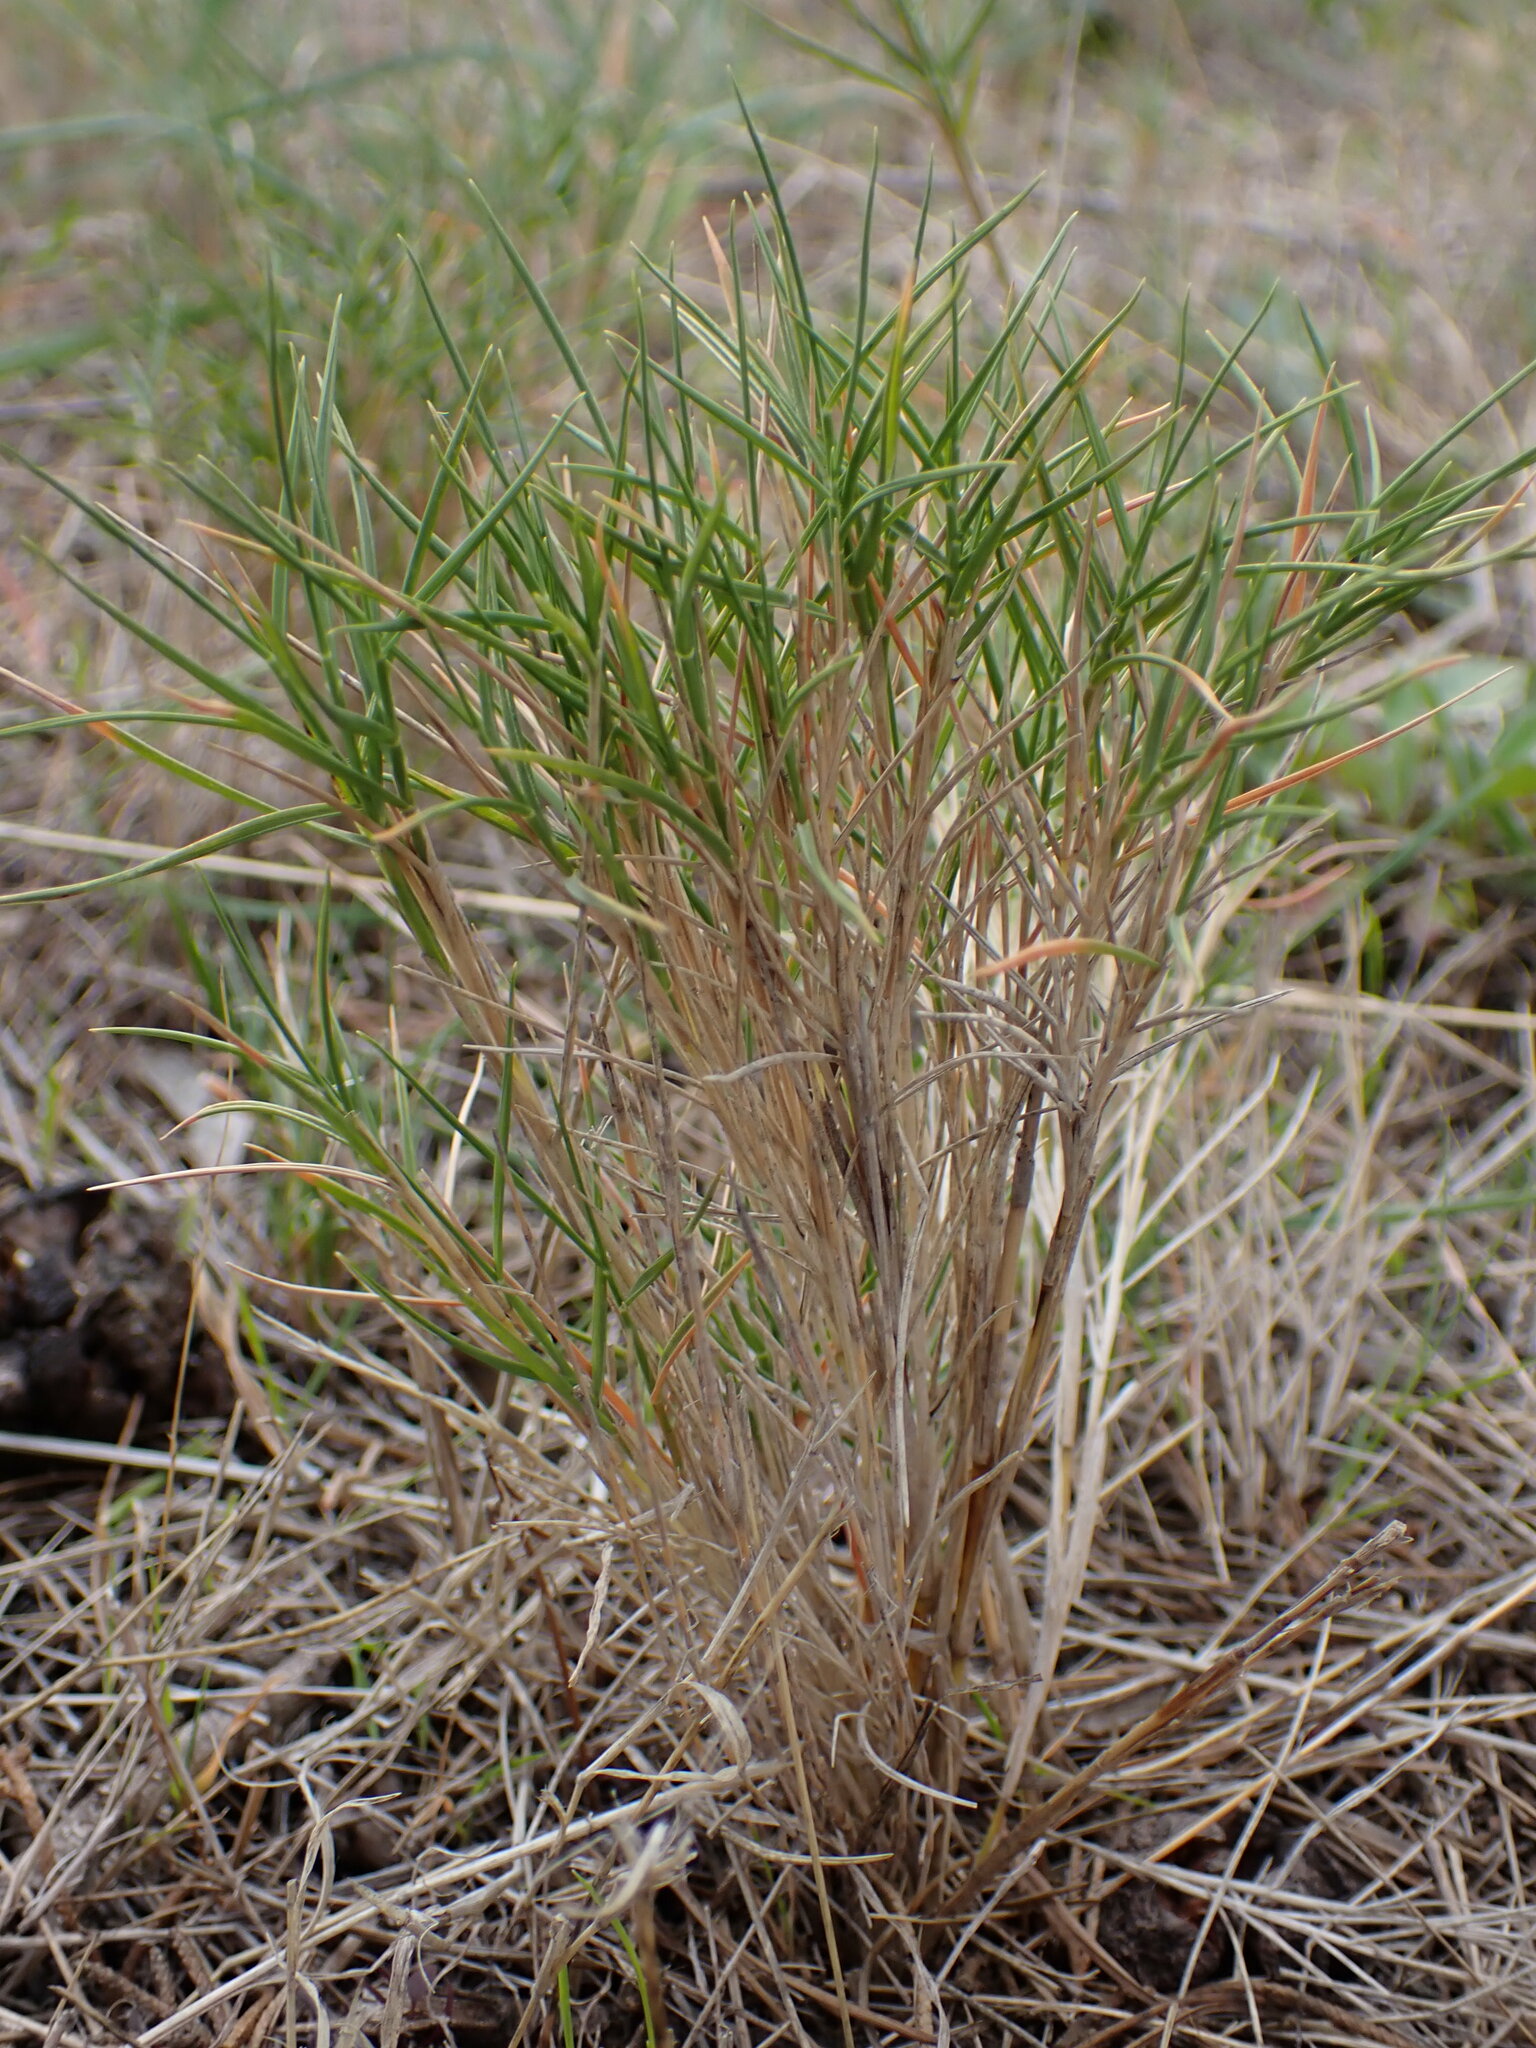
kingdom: Plantae
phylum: Tracheophyta
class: Liliopsida
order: Poales
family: Poaceae
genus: Brachypodium
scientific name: Brachypodium retusum
